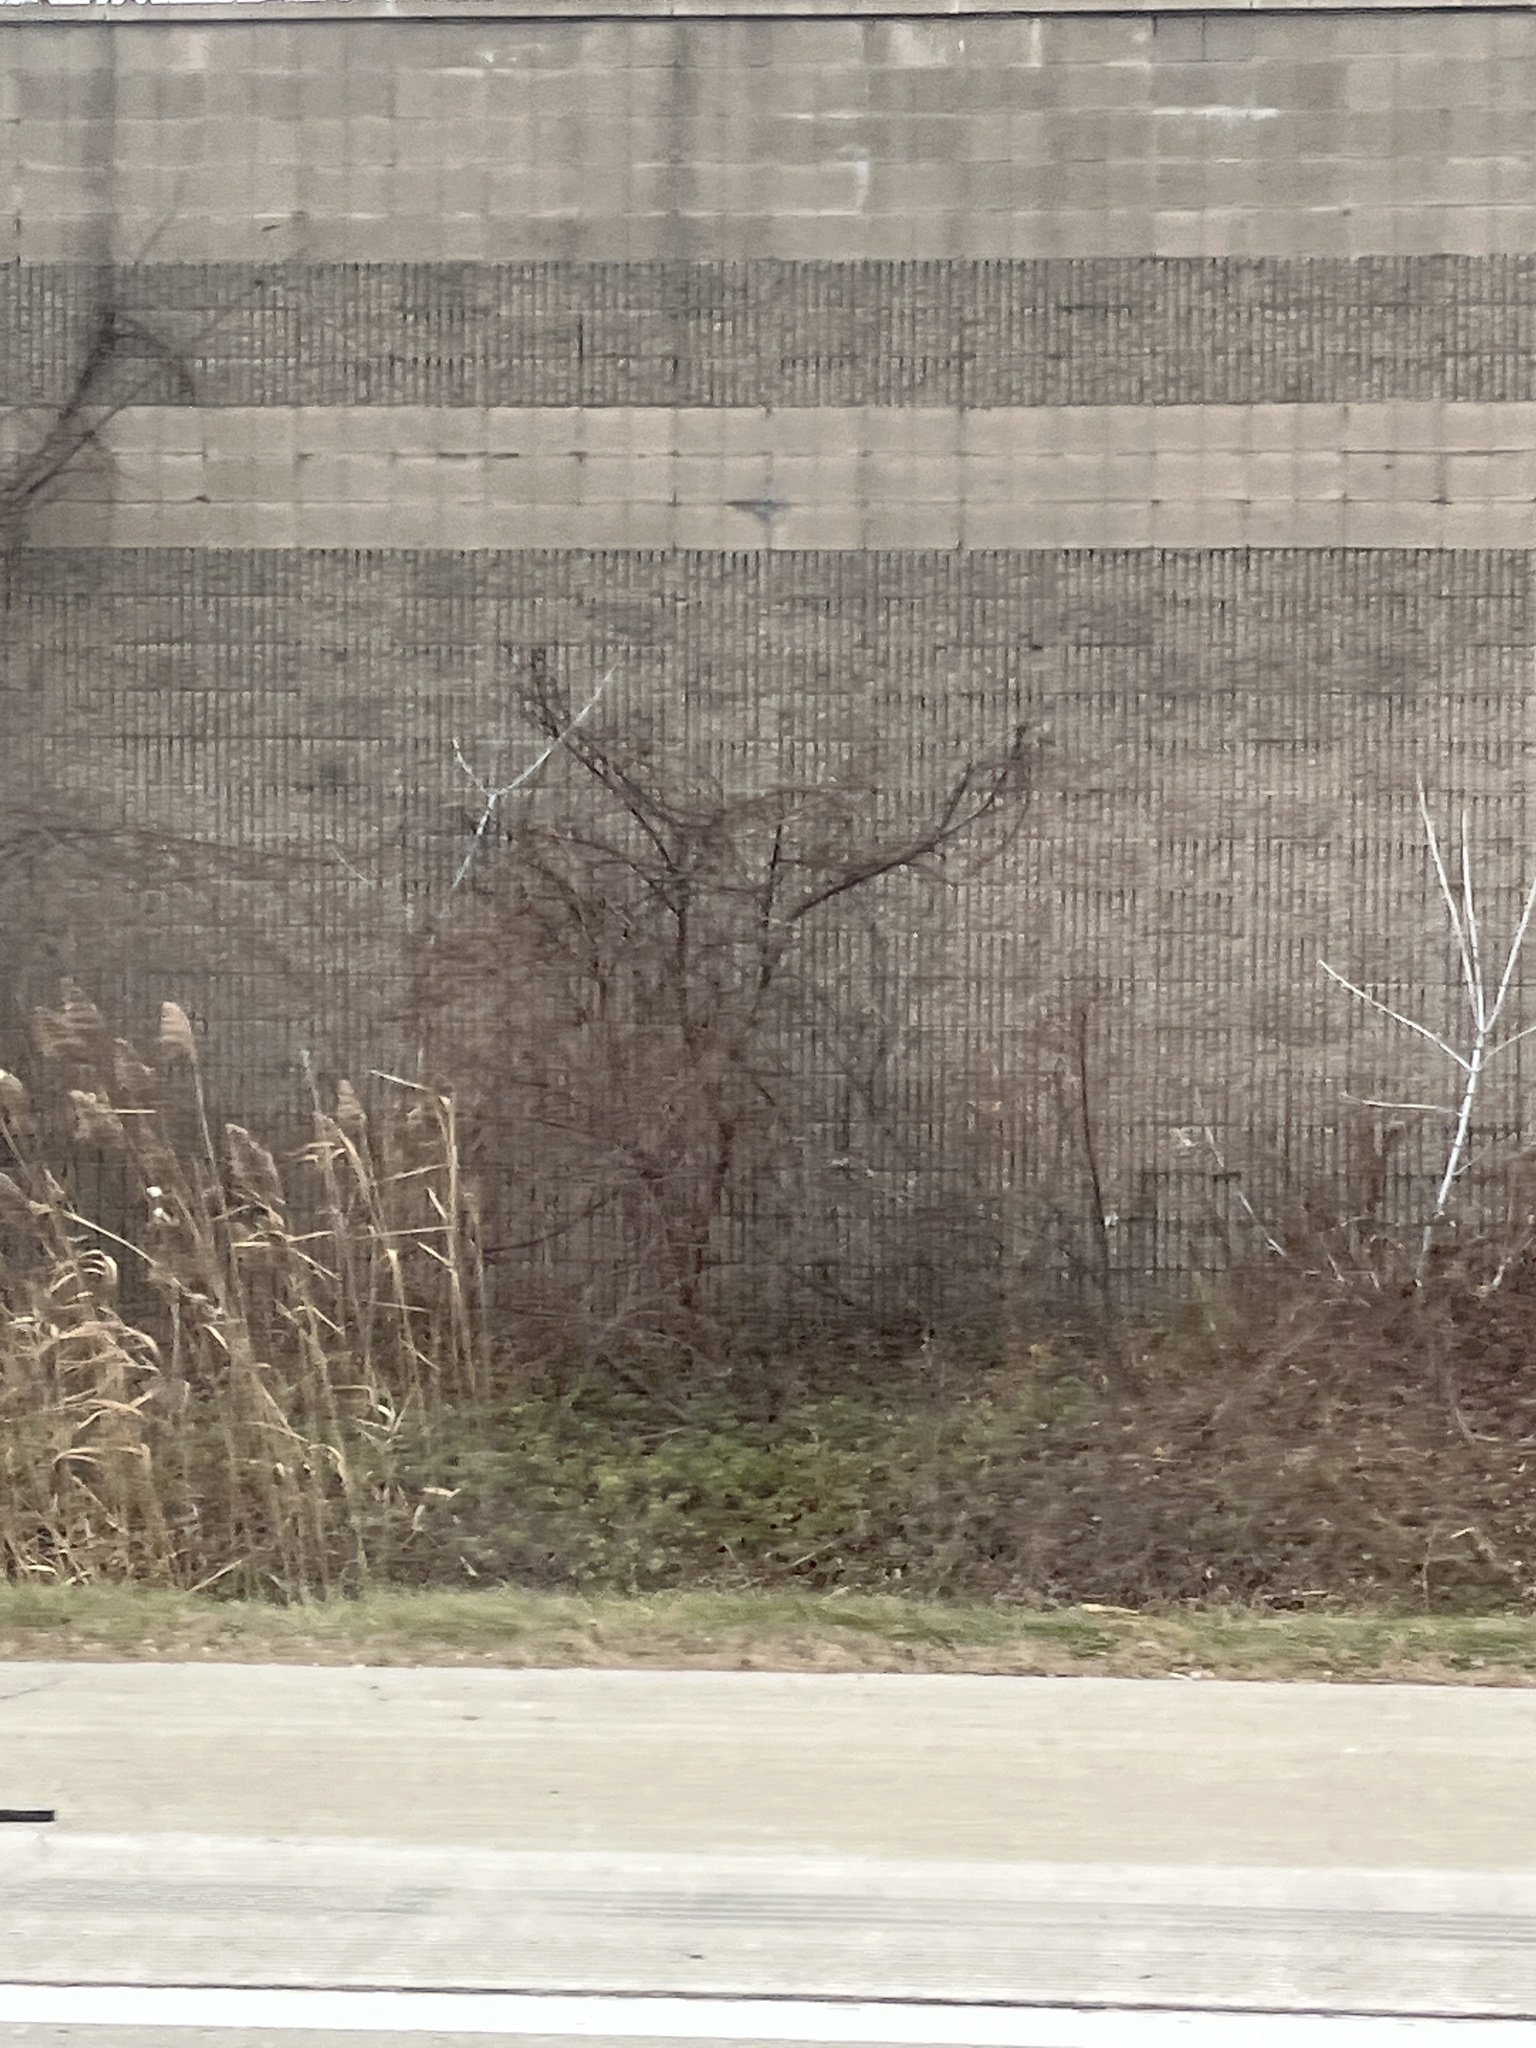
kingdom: Plantae
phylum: Tracheophyta
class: Liliopsida
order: Poales
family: Poaceae
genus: Phragmites
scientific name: Phragmites australis
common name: Common reed
